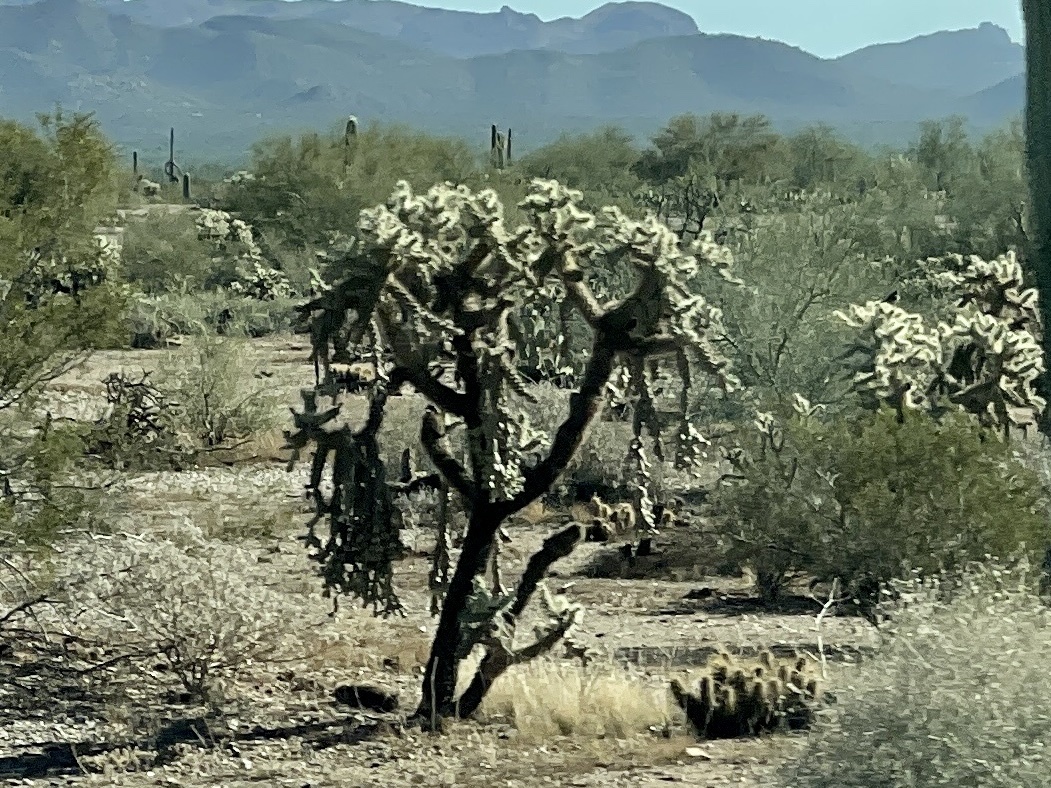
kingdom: Plantae
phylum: Tracheophyta
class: Magnoliopsida
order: Caryophyllales
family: Cactaceae
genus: Cylindropuntia
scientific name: Cylindropuntia fulgida
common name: Jumping cholla
